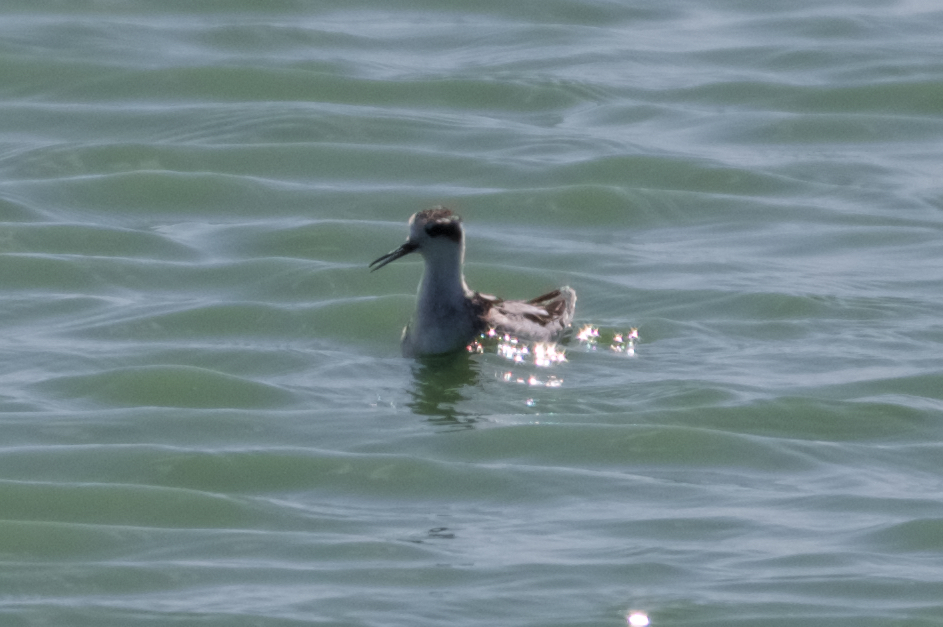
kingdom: Animalia
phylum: Chordata
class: Aves
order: Charadriiformes
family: Scolopacidae
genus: Phalaropus
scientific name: Phalaropus lobatus
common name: Red-necked phalarope
